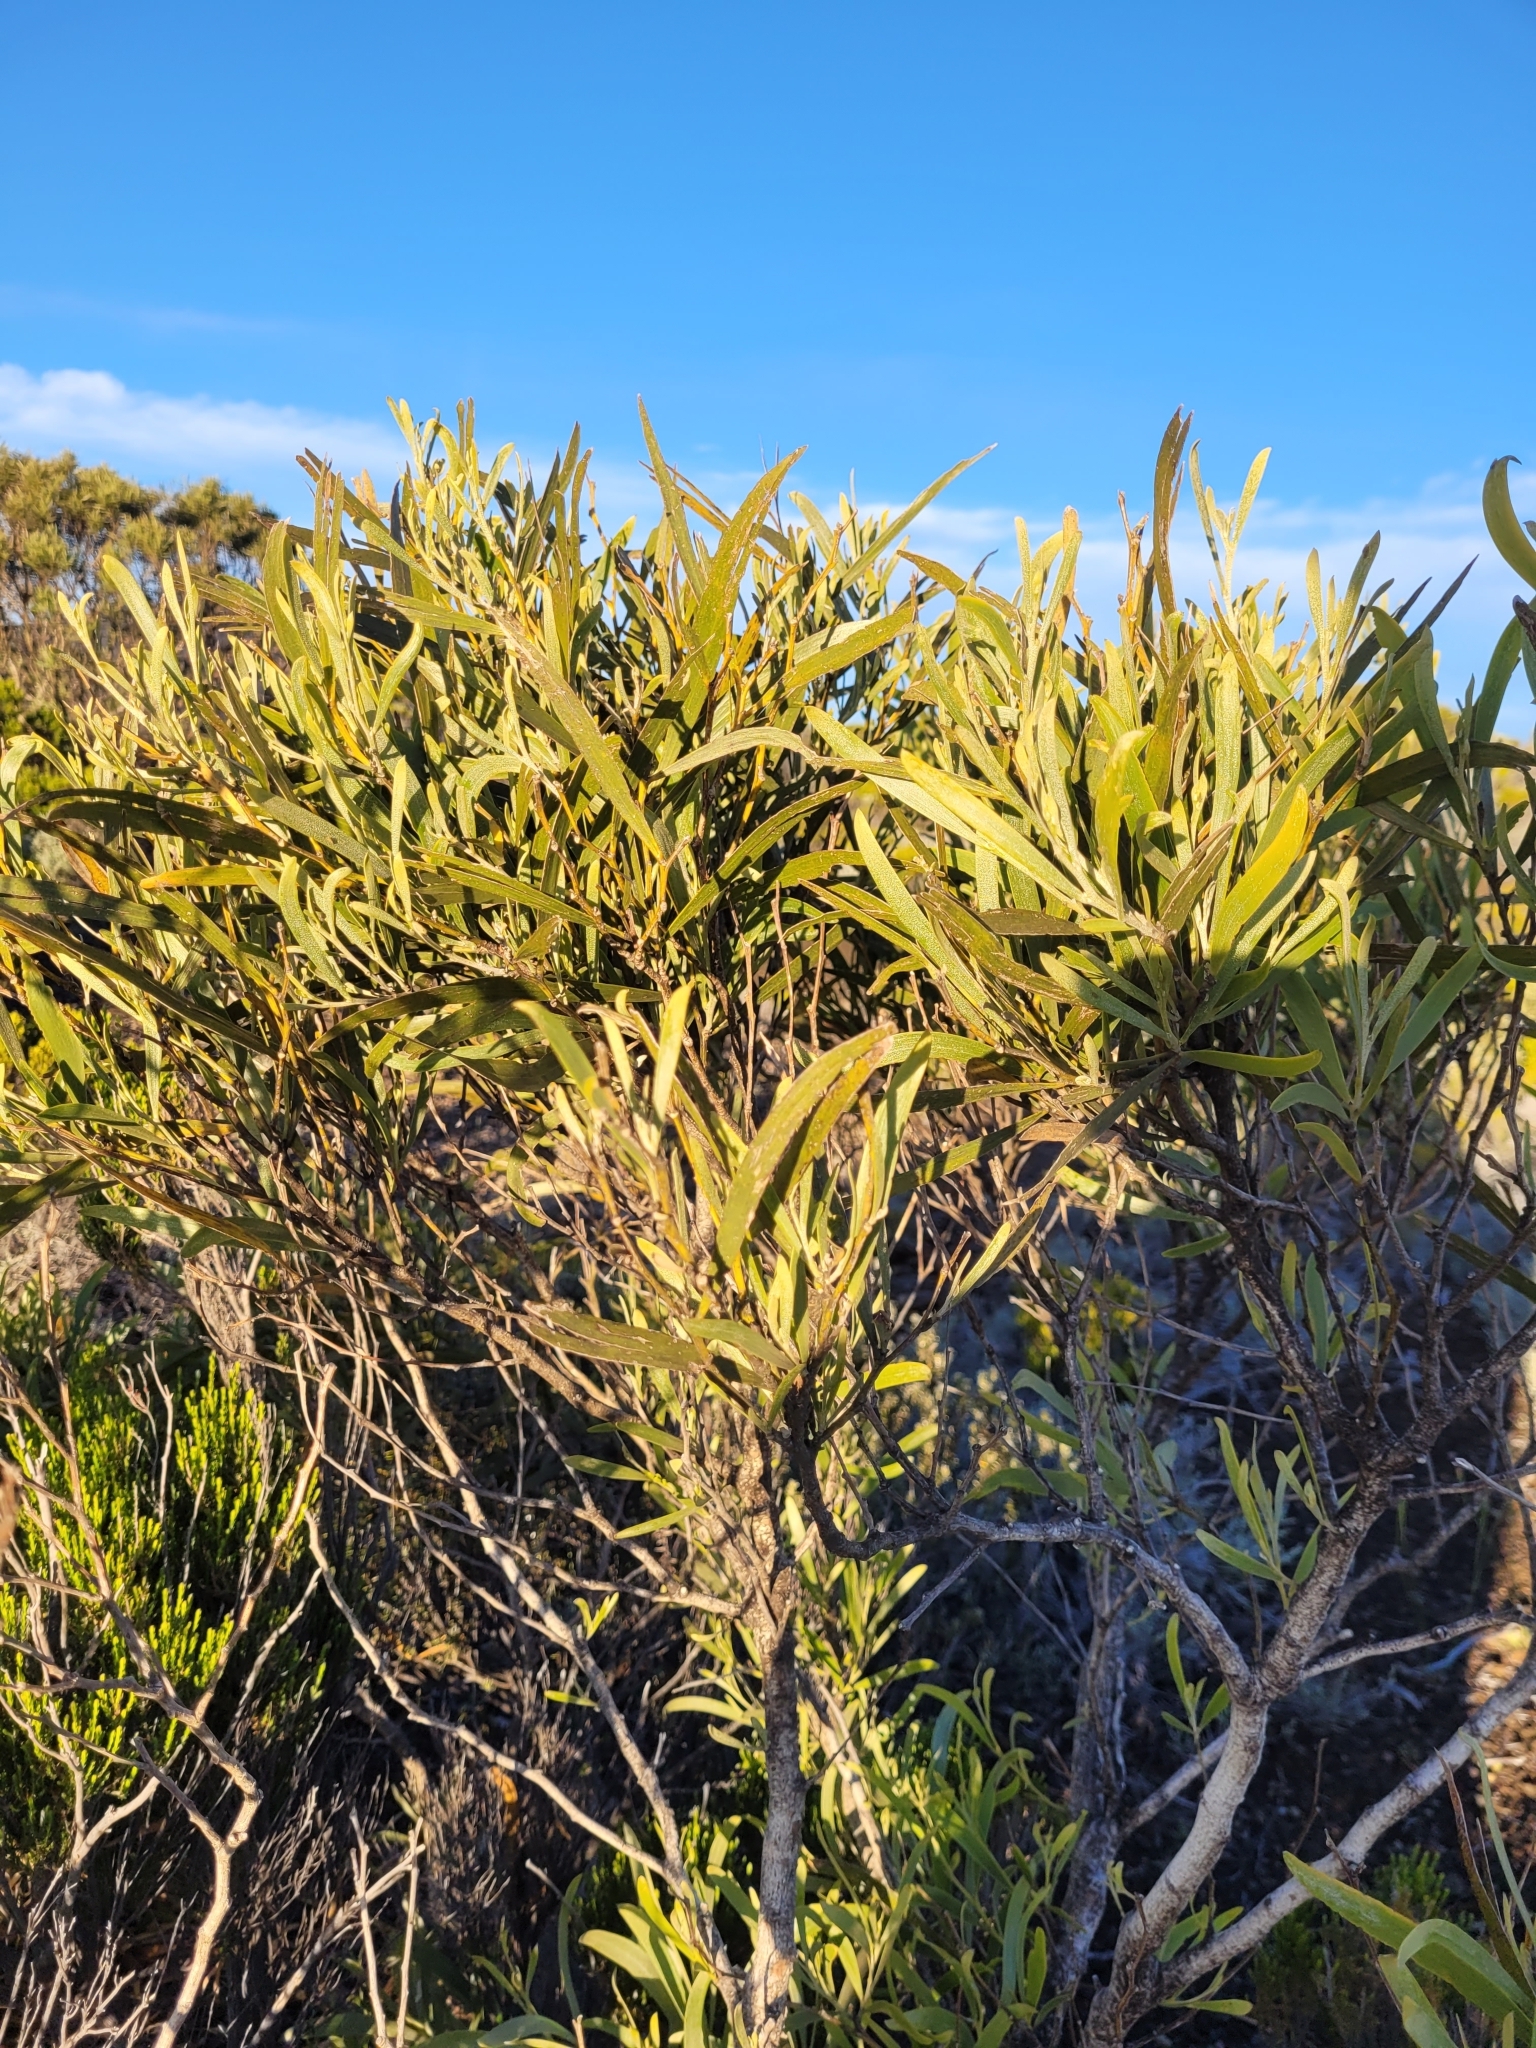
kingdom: Plantae
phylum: Tracheophyta
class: Magnoliopsida
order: Fabales
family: Fabaceae
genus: Acacia
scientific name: Acacia heterophylla
